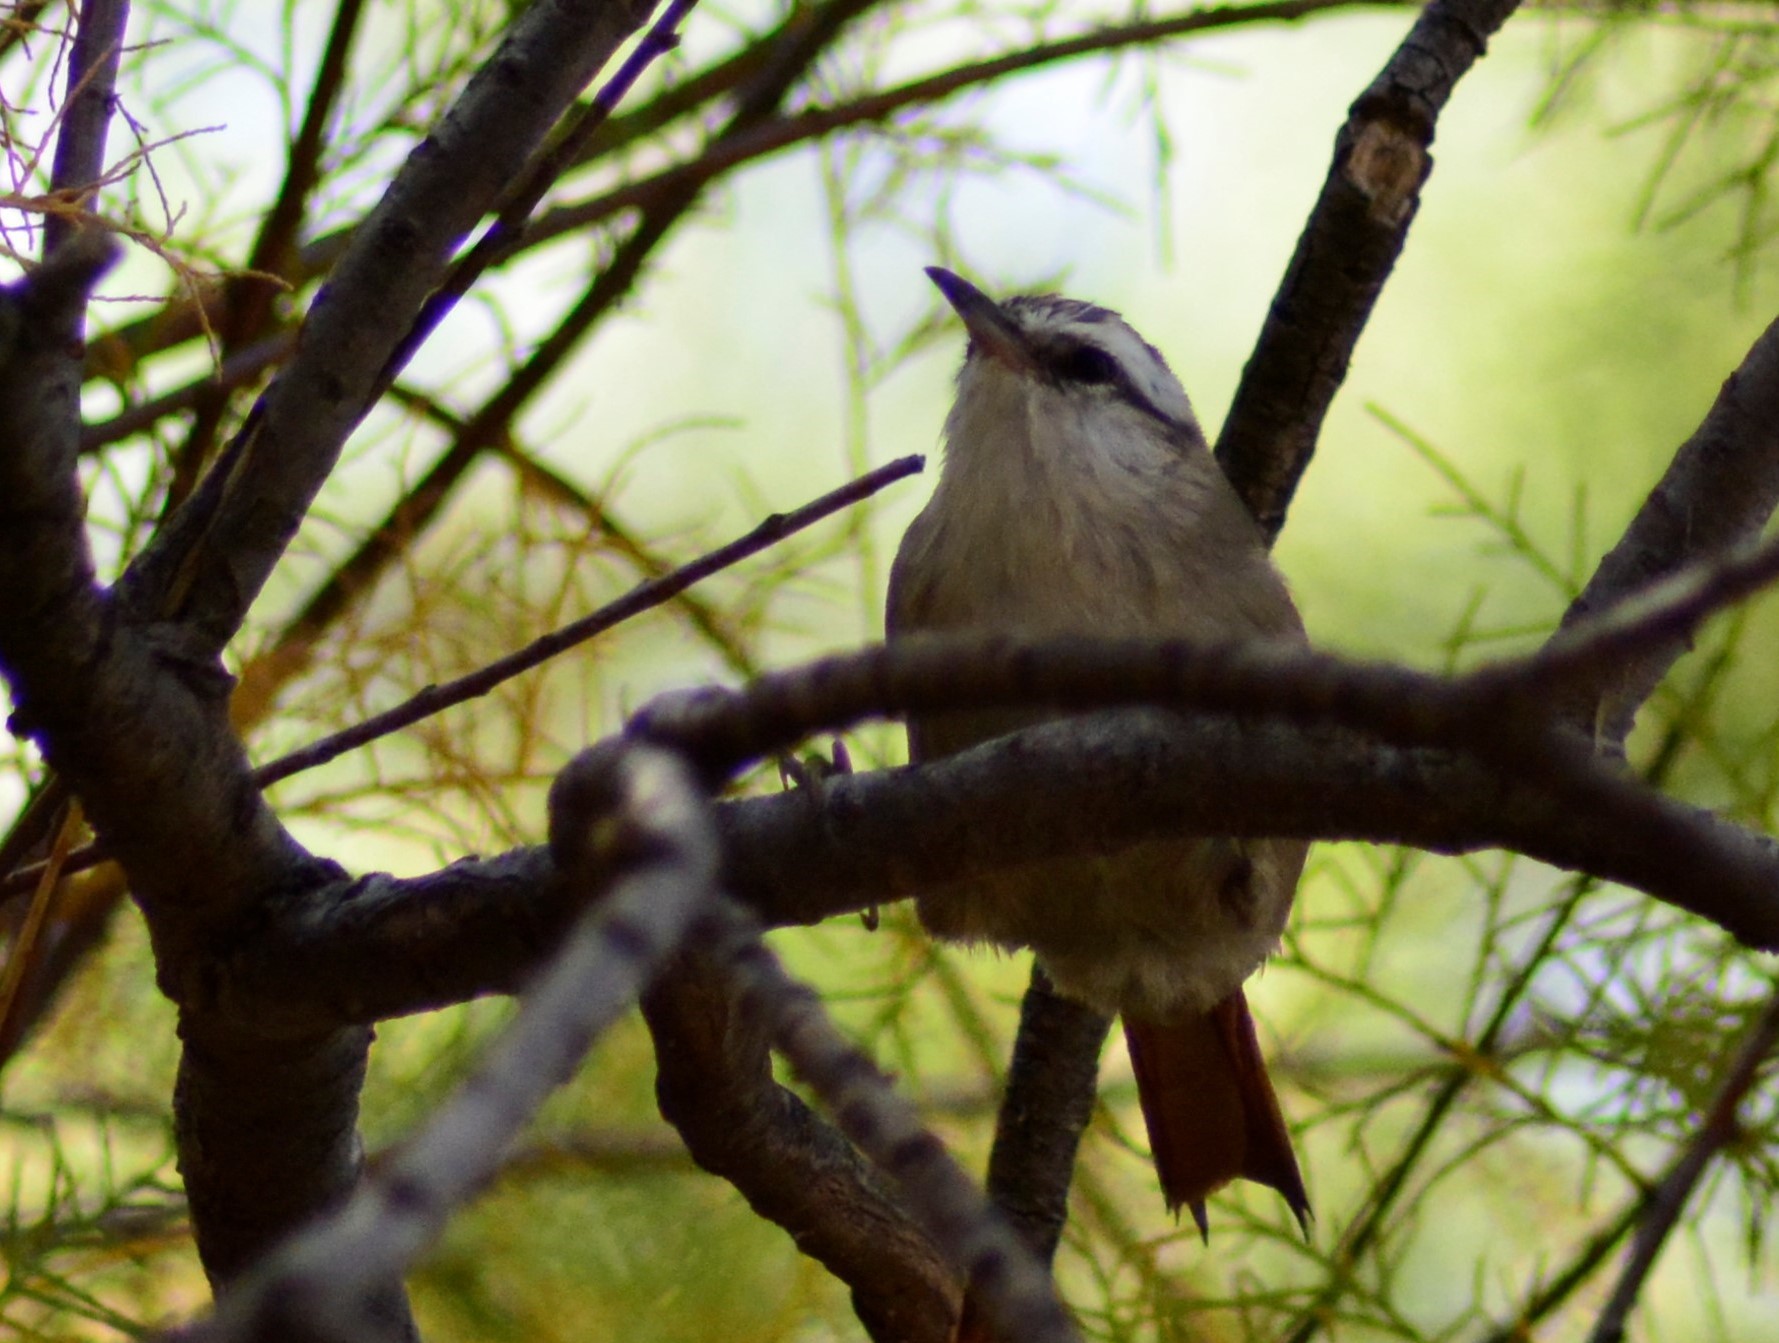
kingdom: Animalia
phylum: Chordata
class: Aves
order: Passeriformes
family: Furnariidae
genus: Cranioleuca
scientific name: Cranioleuca pyrrhophia
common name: Stripe-crowned spinetail
